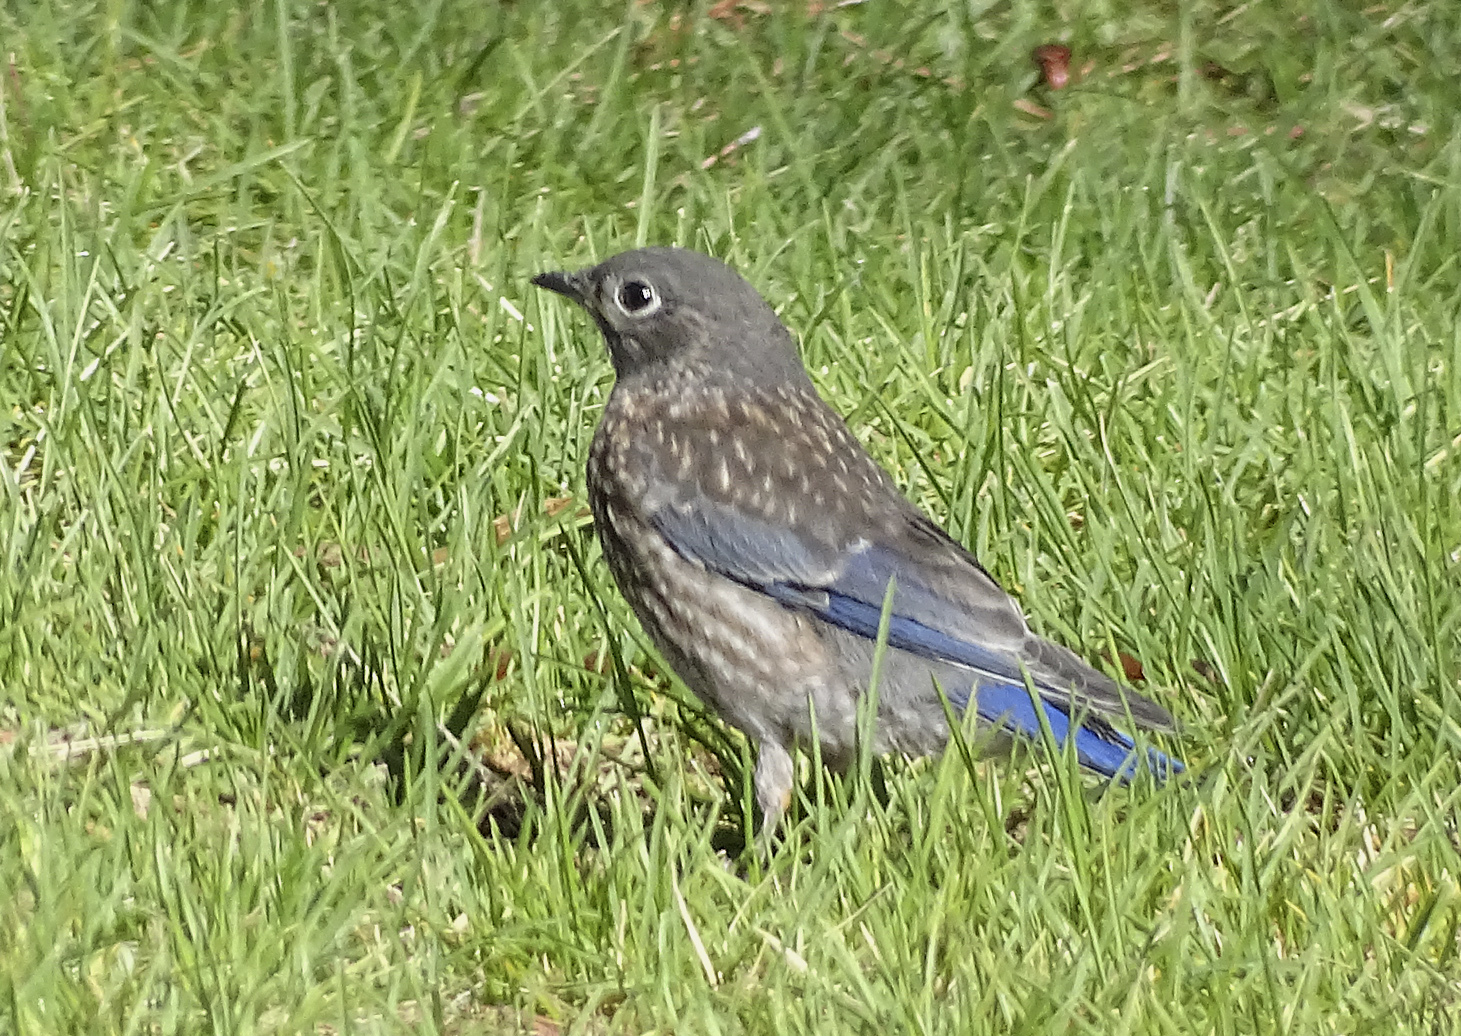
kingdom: Animalia
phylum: Chordata
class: Aves
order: Passeriformes
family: Turdidae
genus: Sialia
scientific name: Sialia mexicana
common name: Western bluebird
